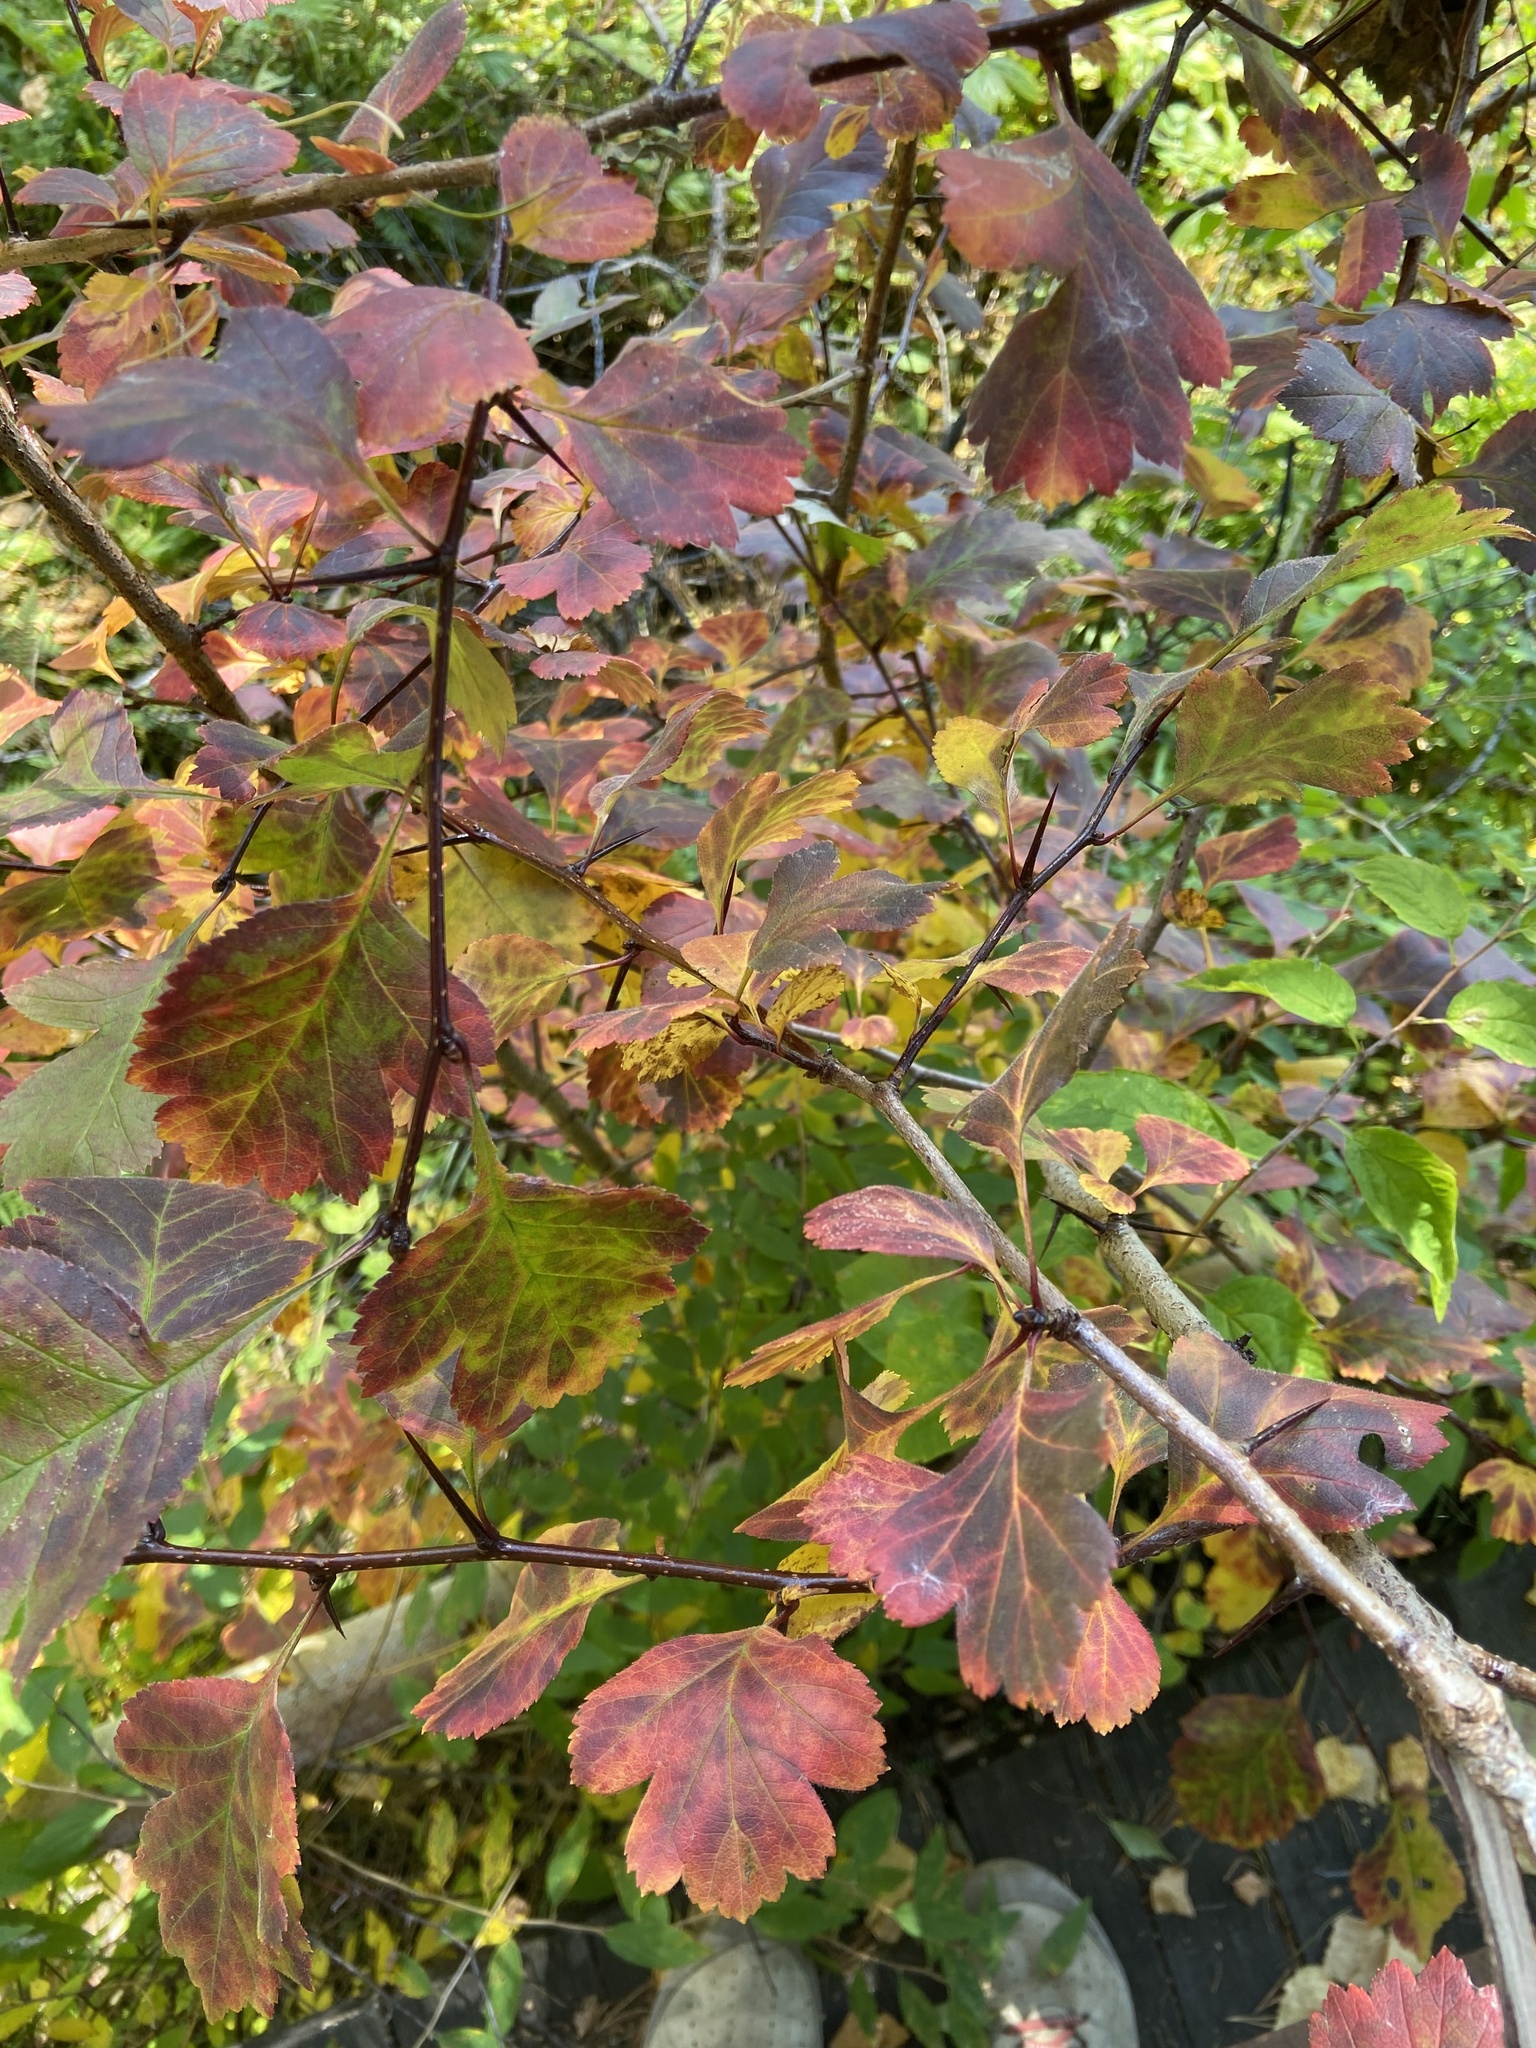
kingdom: Plantae
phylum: Tracheophyta
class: Magnoliopsida
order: Rosales
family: Rosaceae
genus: Crataegus
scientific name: Crataegus sanguinea
